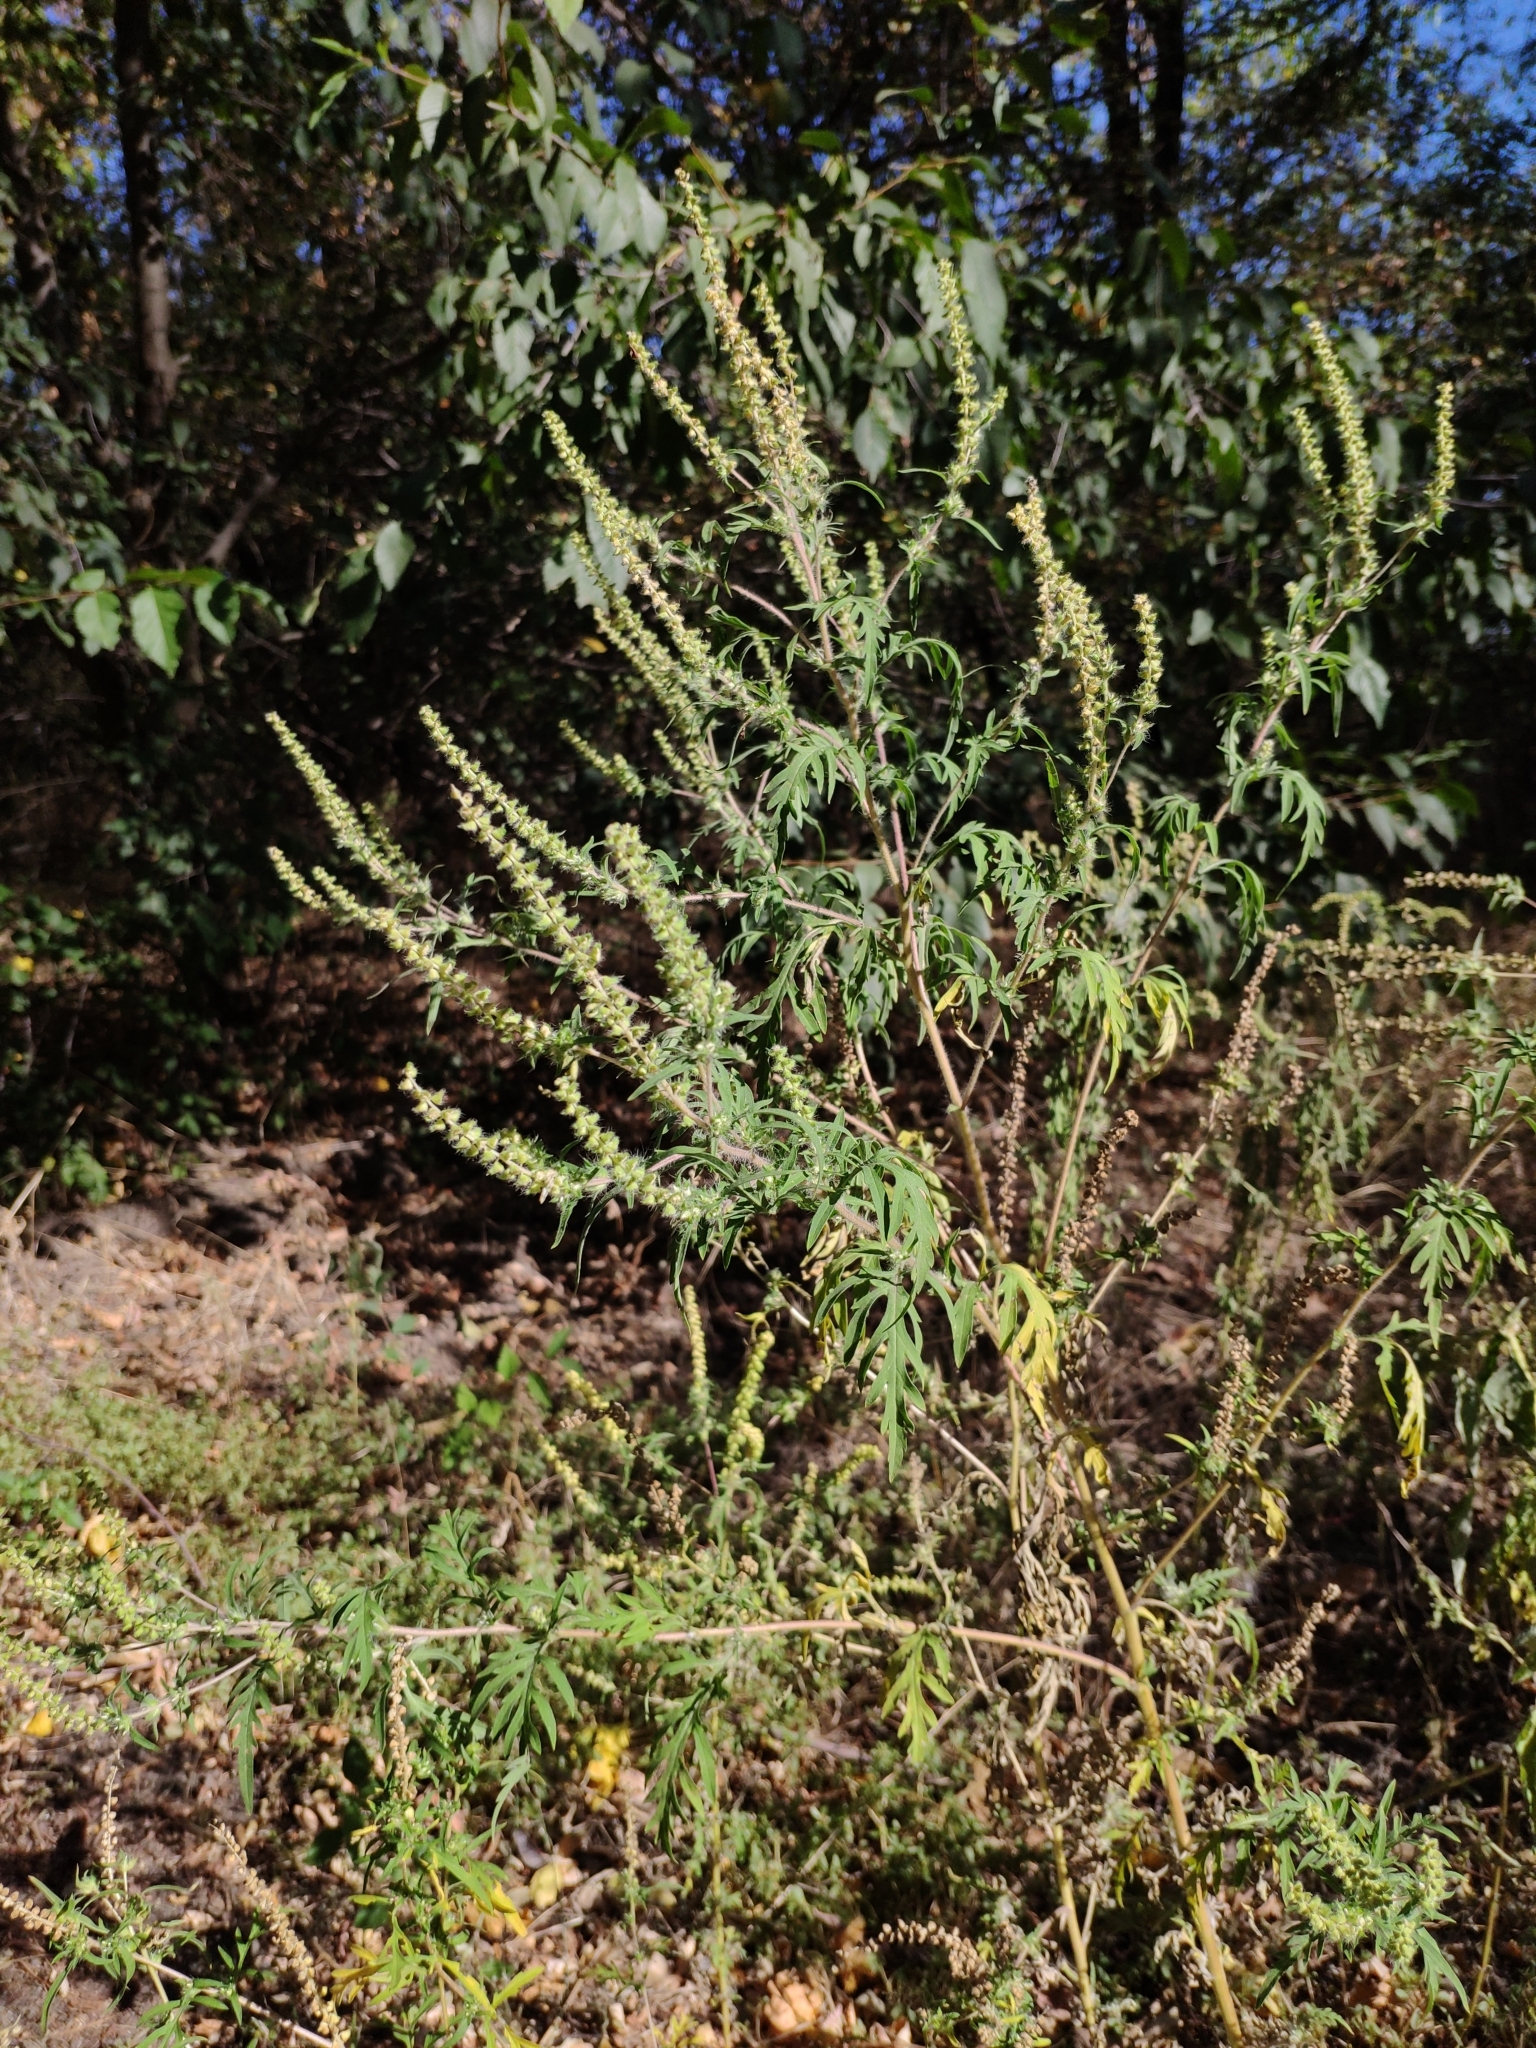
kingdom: Plantae
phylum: Tracheophyta
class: Magnoliopsida
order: Asterales
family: Asteraceae
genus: Ambrosia
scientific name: Ambrosia artemisiifolia
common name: Annual ragweed
